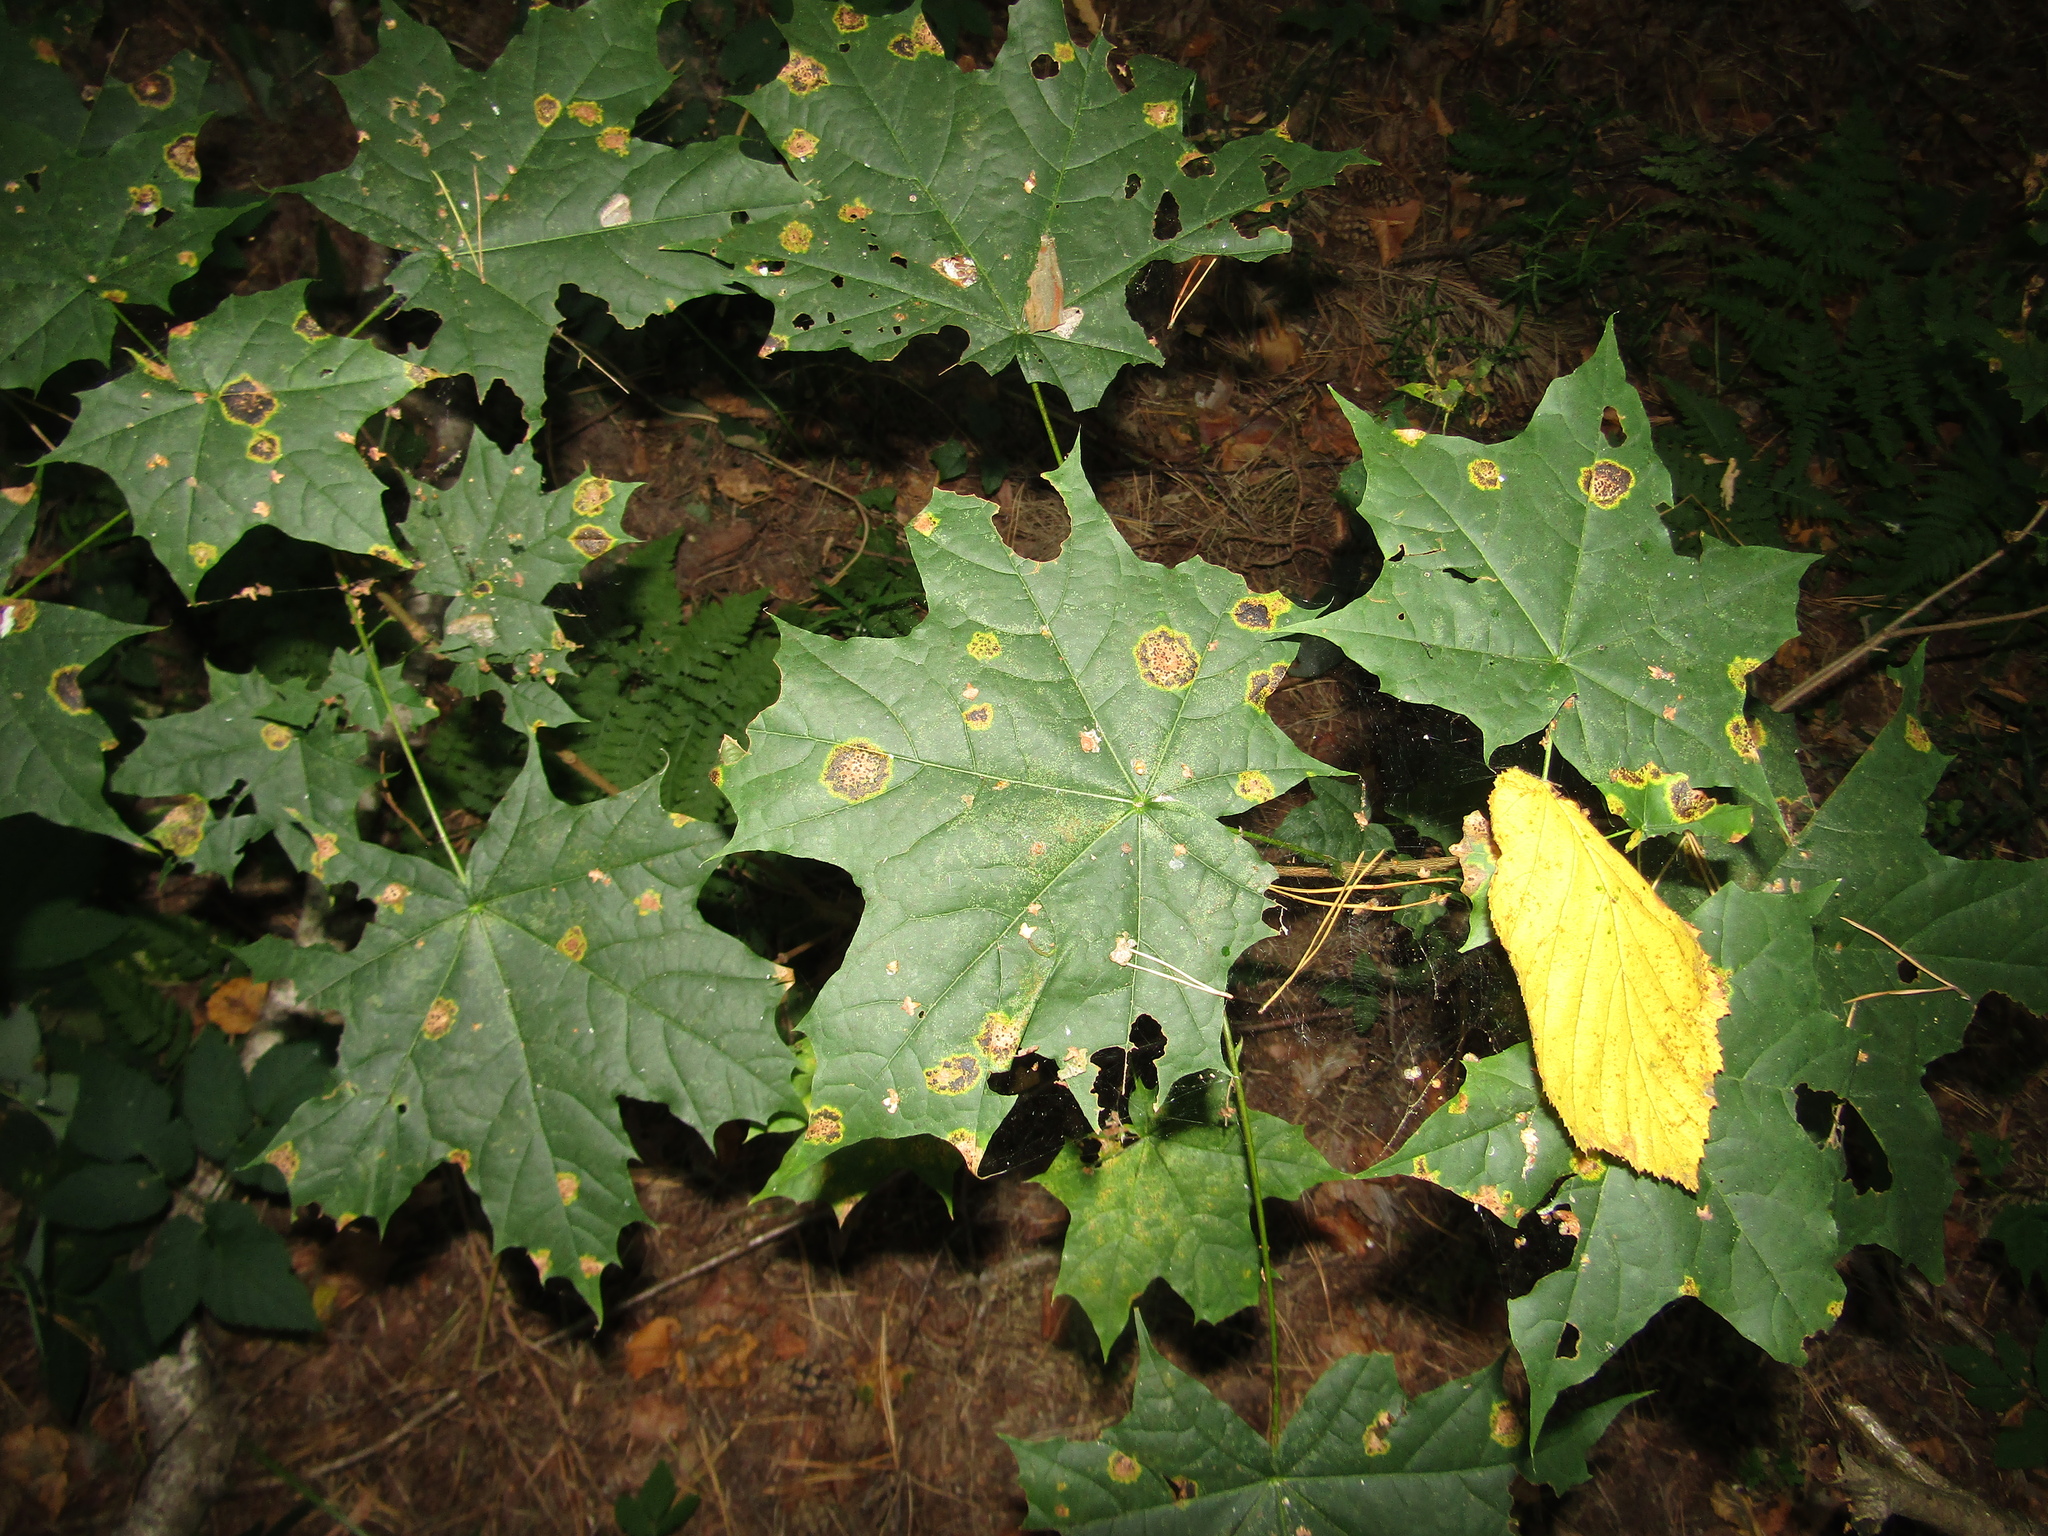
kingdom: Plantae
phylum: Tracheophyta
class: Magnoliopsida
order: Sapindales
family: Sapindaceae
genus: Acer
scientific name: Acer platanoides
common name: Norway maple
